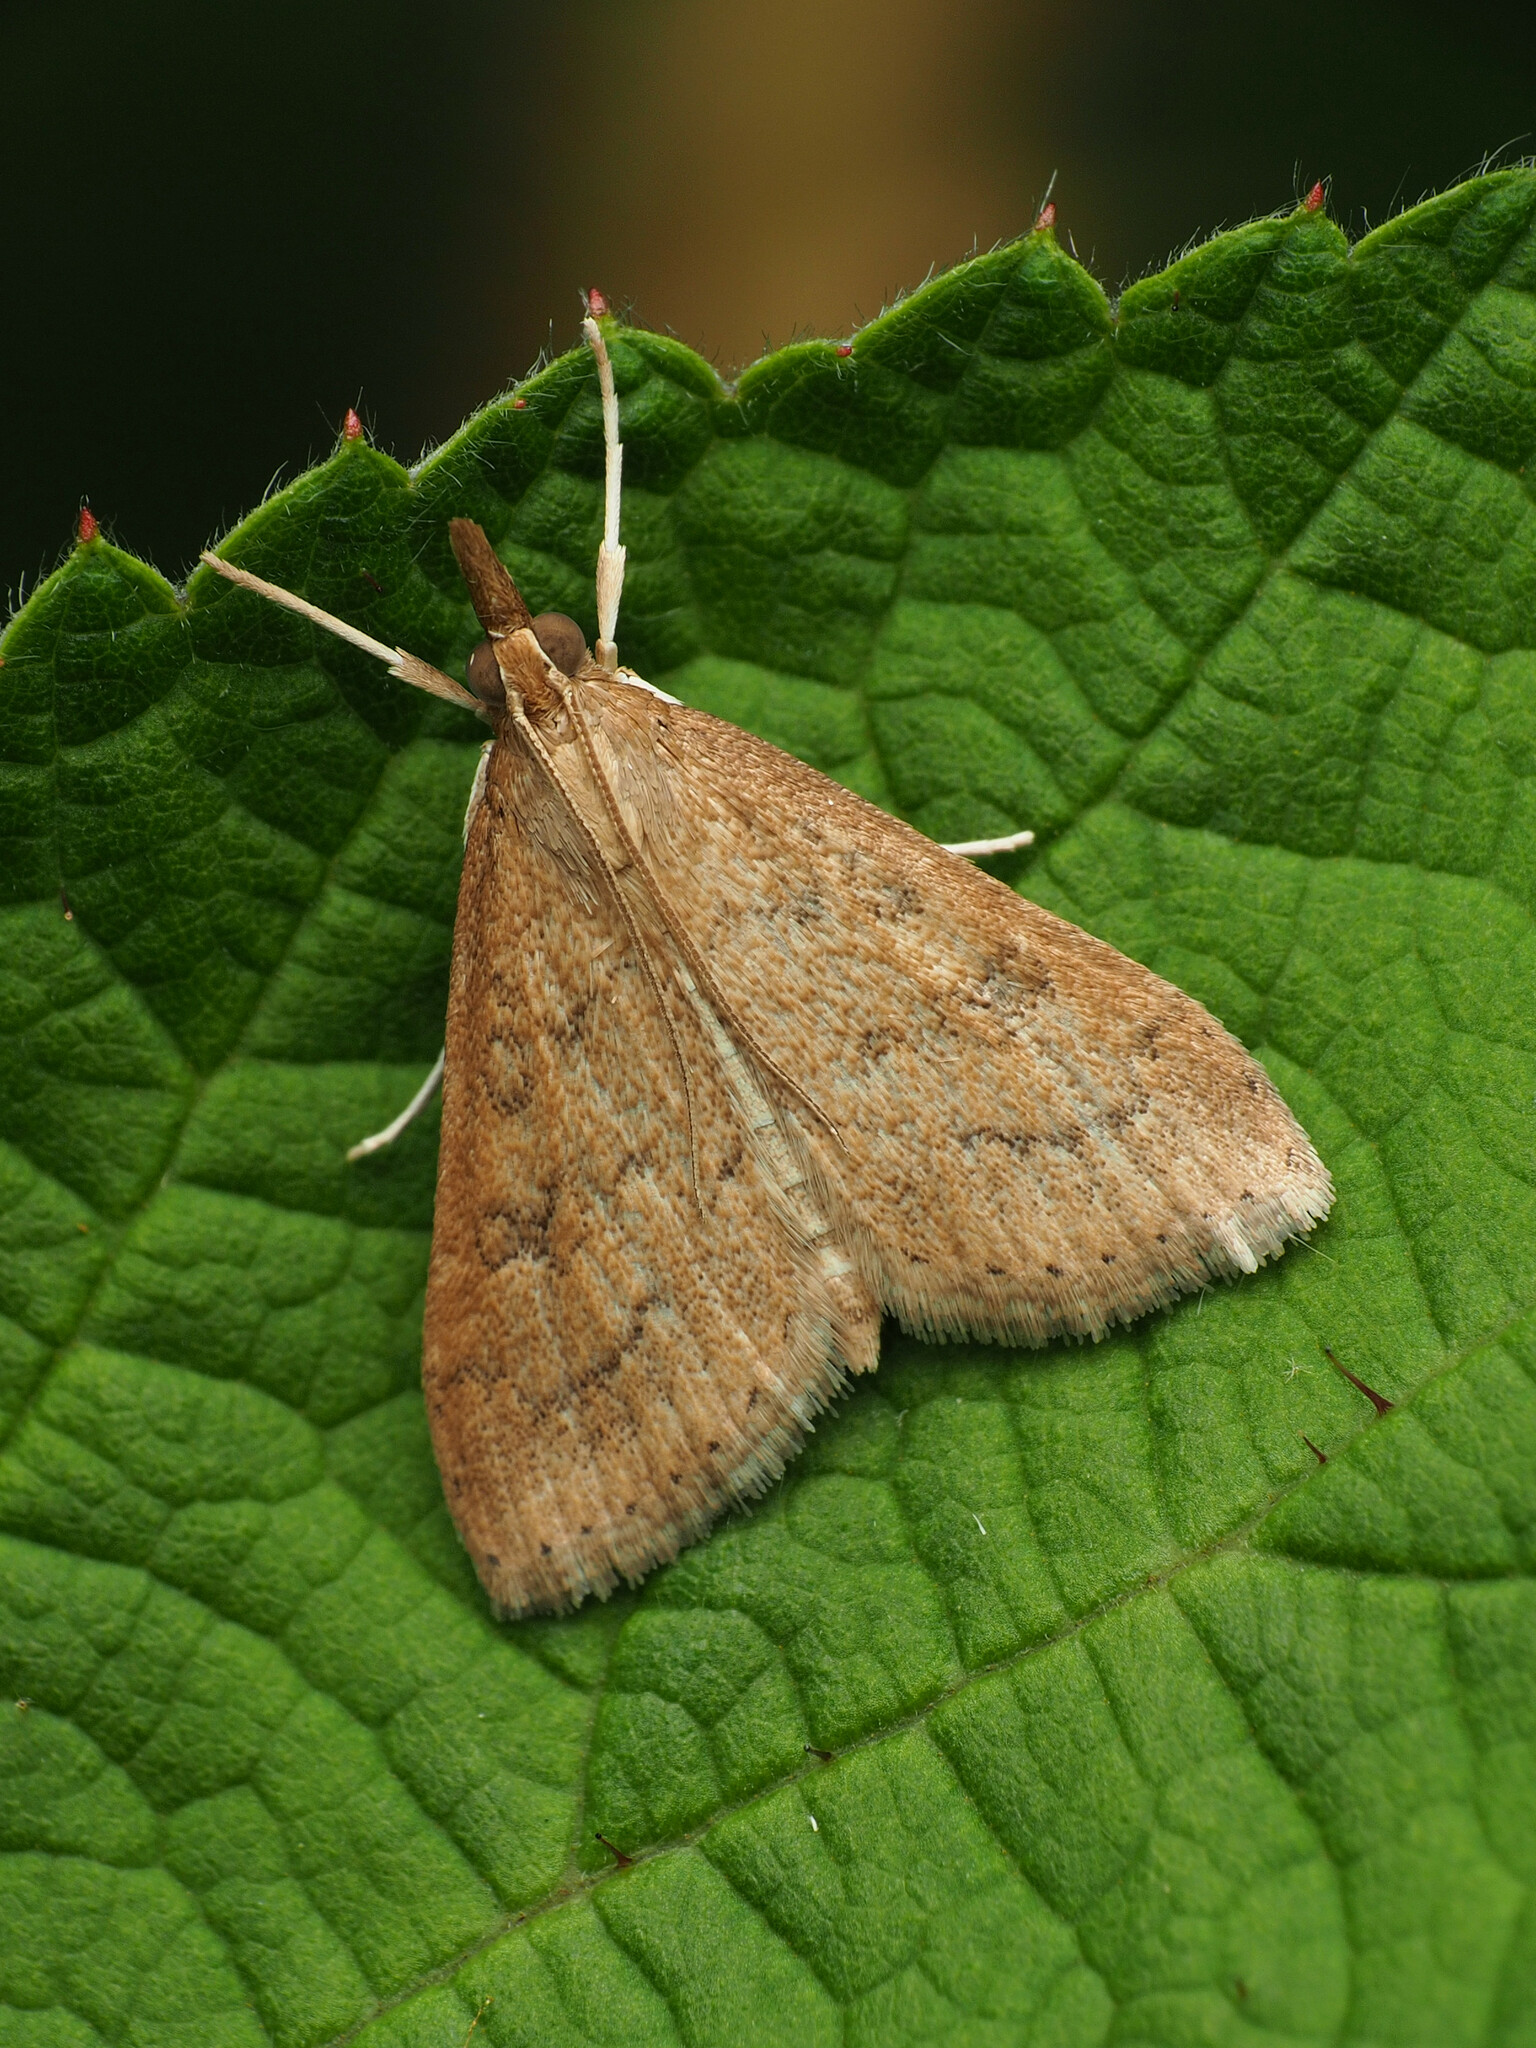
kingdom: Animalia
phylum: Arthropoda
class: Insecta
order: Lepidoptera
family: Crambidae
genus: Udea
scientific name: Udea rubigalis
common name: Celery leaftier moth
